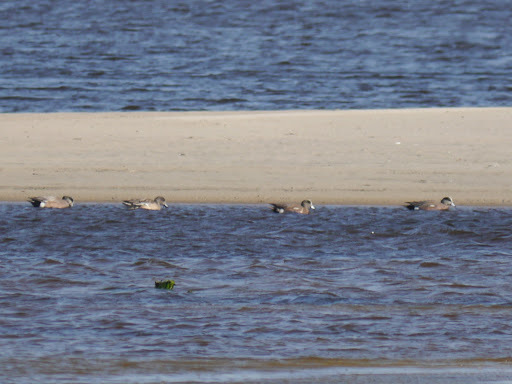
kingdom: Animalia
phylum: Chordata
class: Aves
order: Anseriformes
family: Anatidae
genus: Mareca
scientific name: Mareca americana
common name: American wigeon
